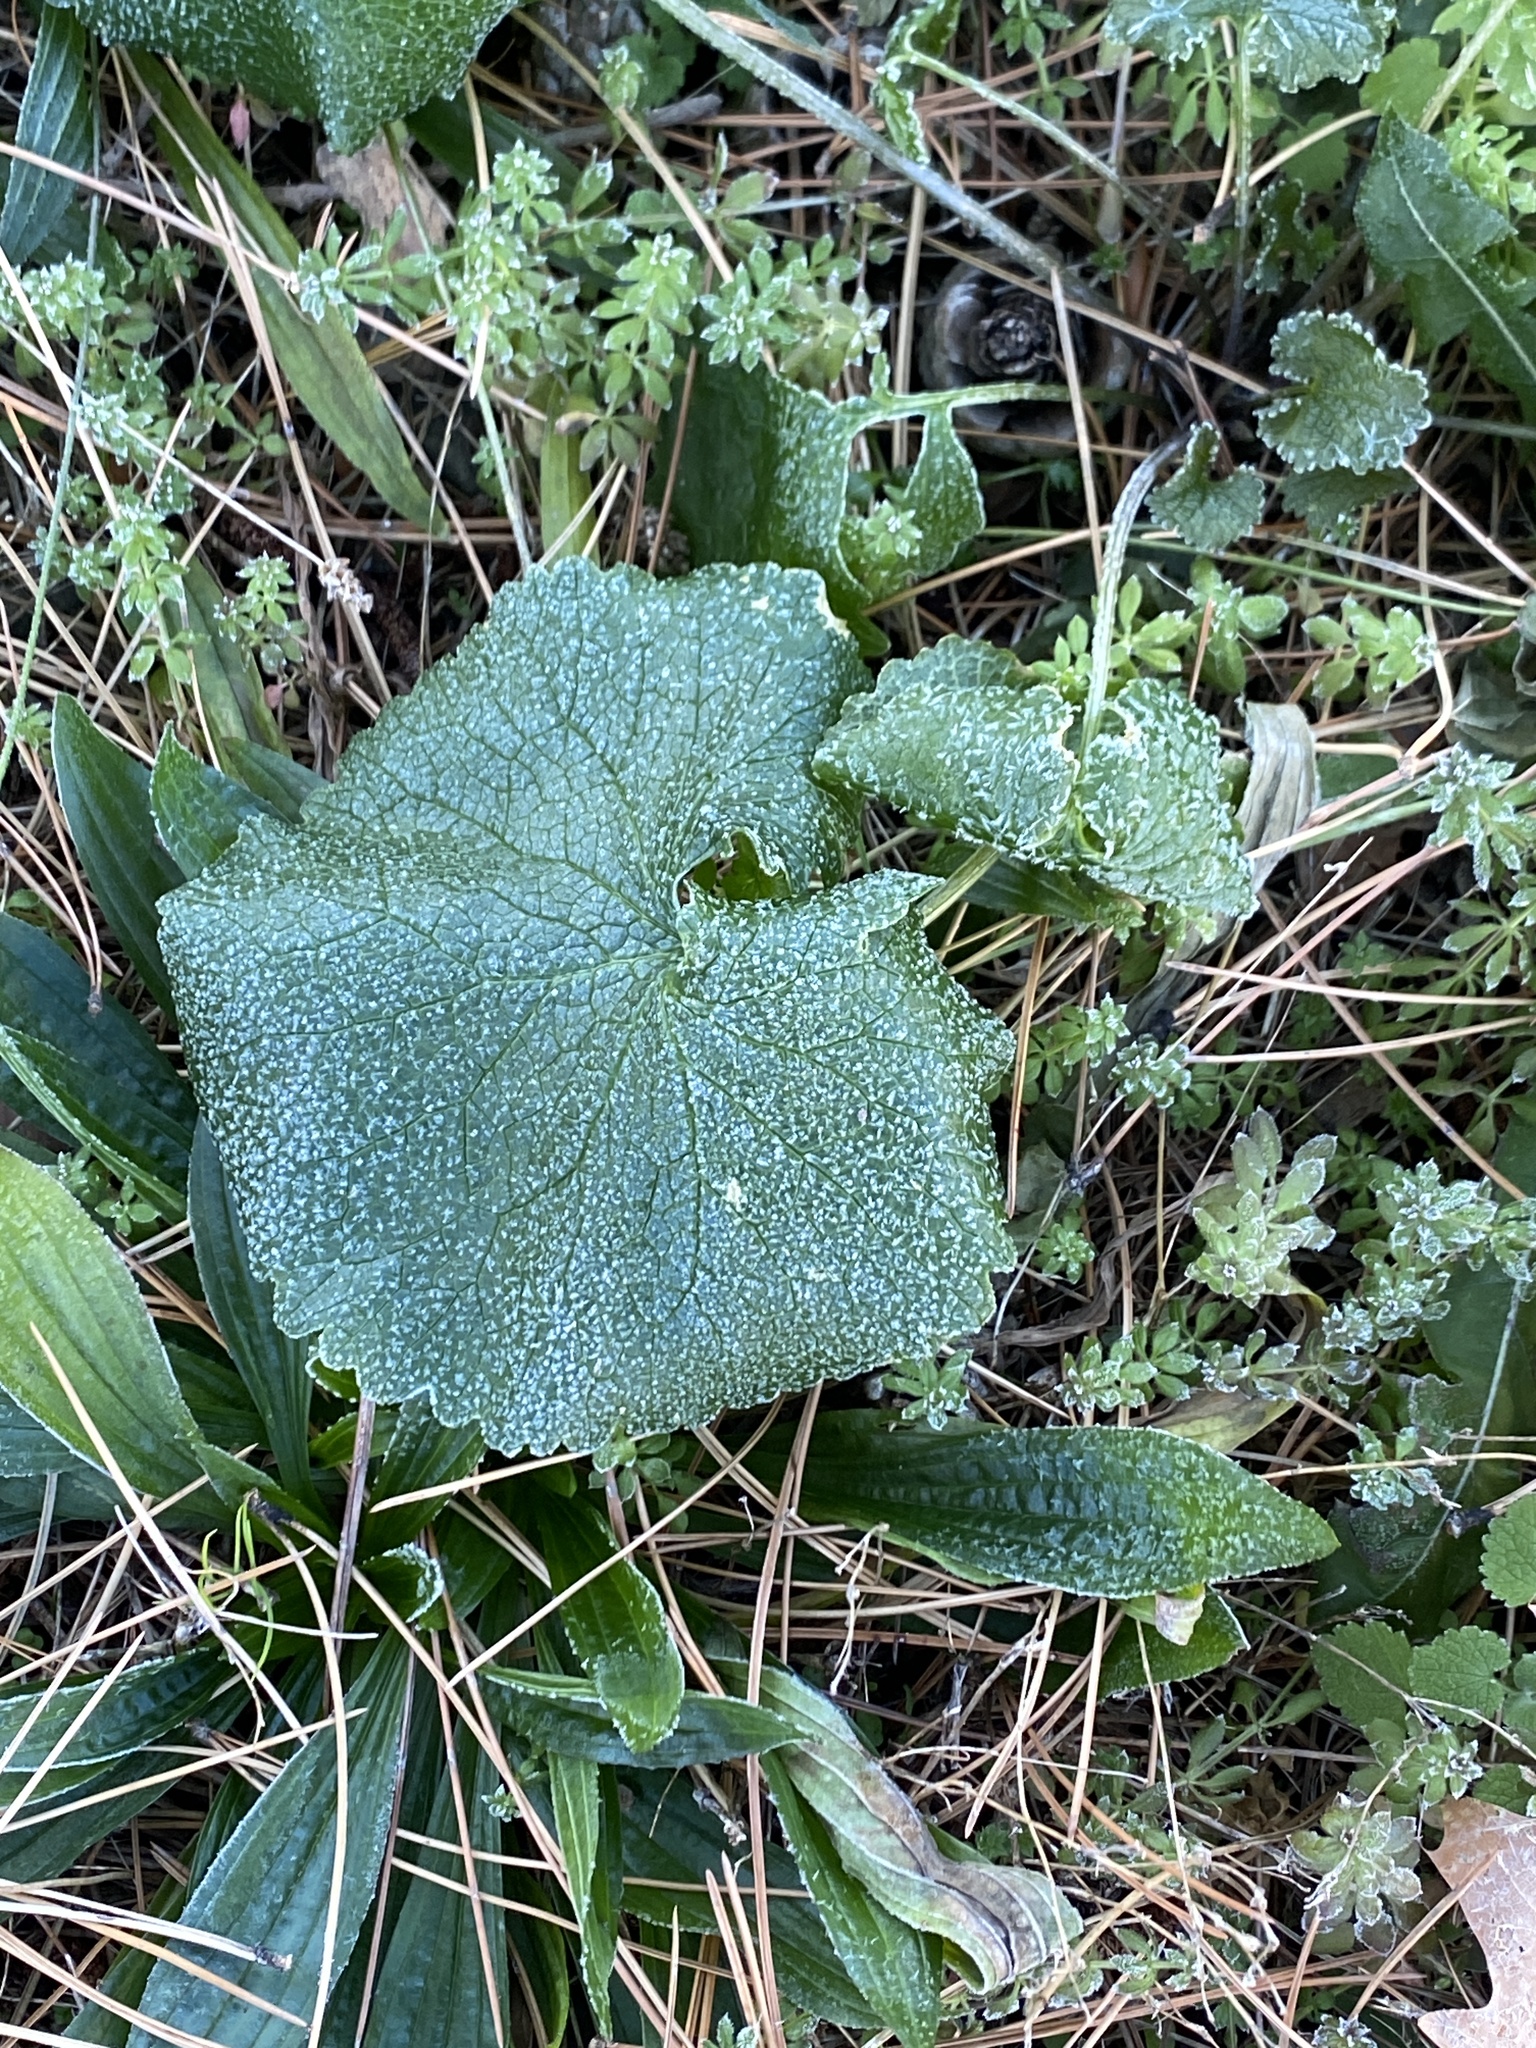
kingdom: Plantae
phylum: Tracheophyta
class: Magnoliopsida
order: Brassicales
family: Brassicaceae
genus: Alliaria
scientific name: Alliaria petiolata
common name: Garlic mustard
